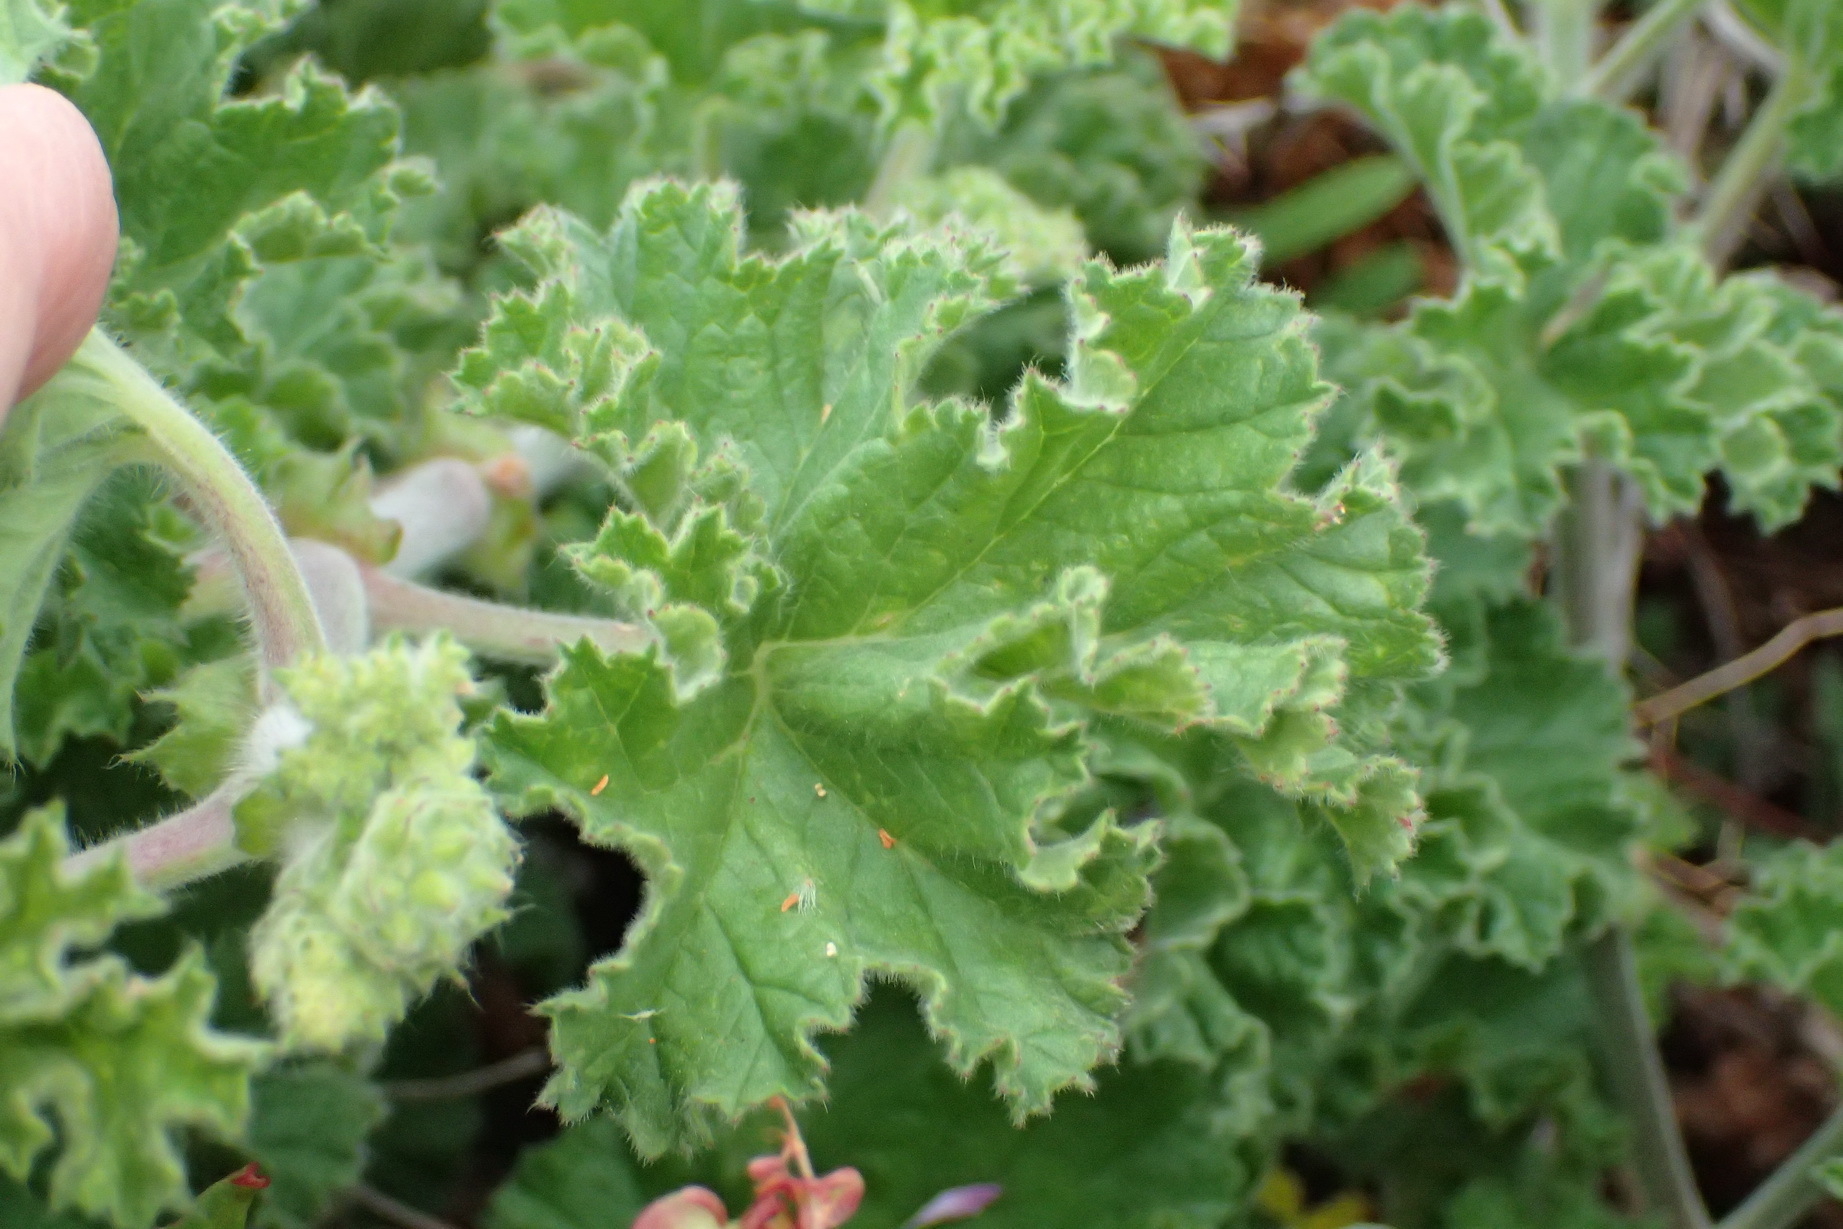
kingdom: Plantae
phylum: Tracheophyta
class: Magnoliopsida
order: Geraniales
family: Geraniaceae
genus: Pelargonium
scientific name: Pelargonium capitatum
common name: Rose scented geranium
